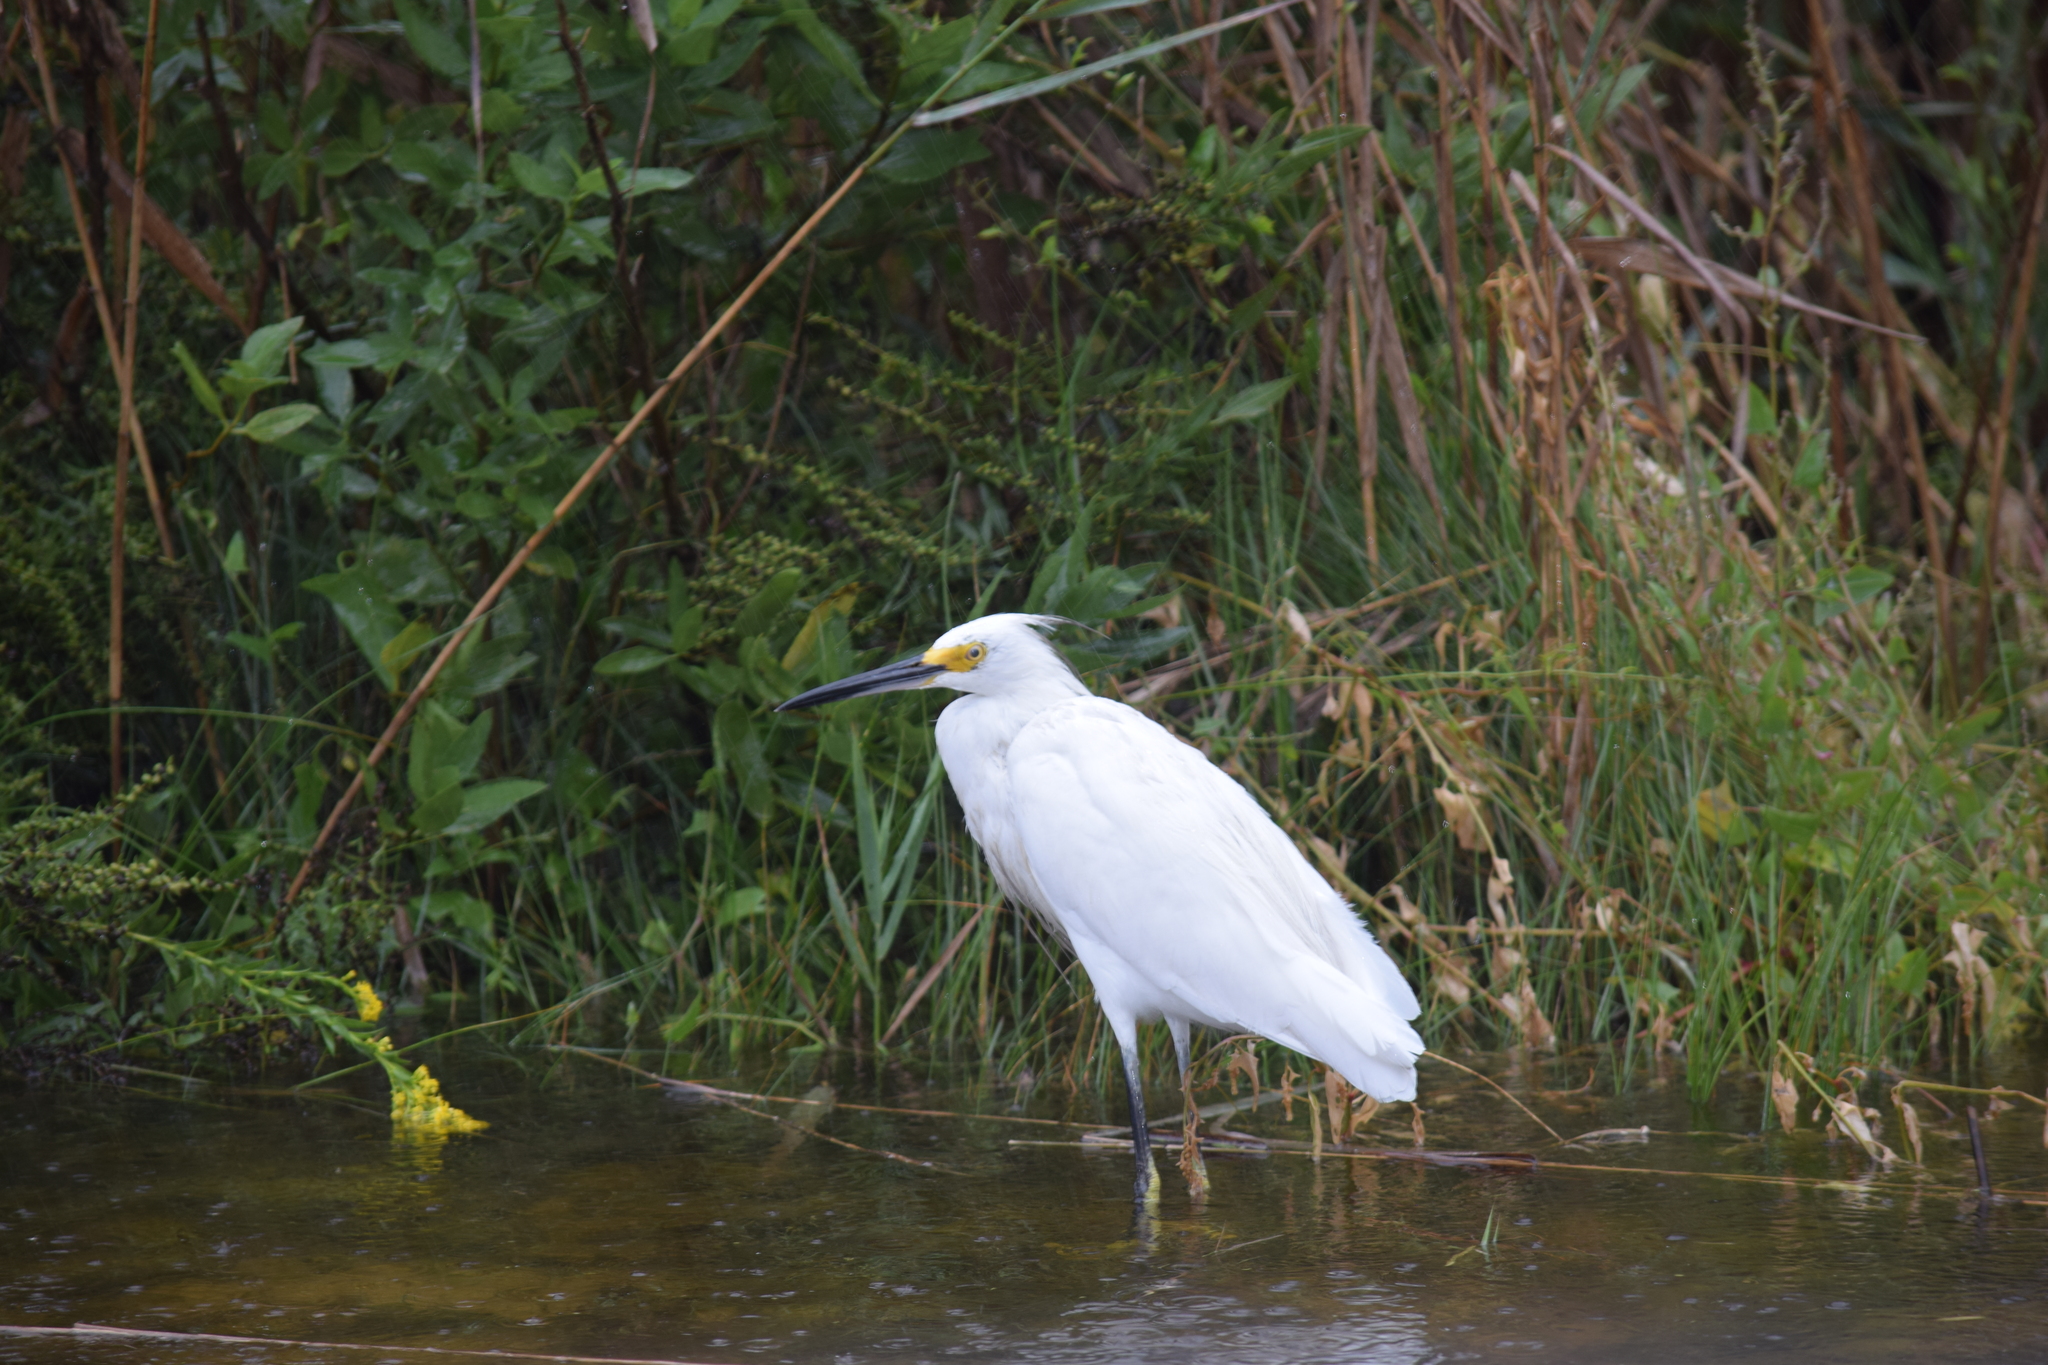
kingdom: Animalia
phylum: Chordata
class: Aves
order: Pelecaniformes
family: Ardeidae
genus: Egretta
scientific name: Egretta thula
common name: Snowy egret
